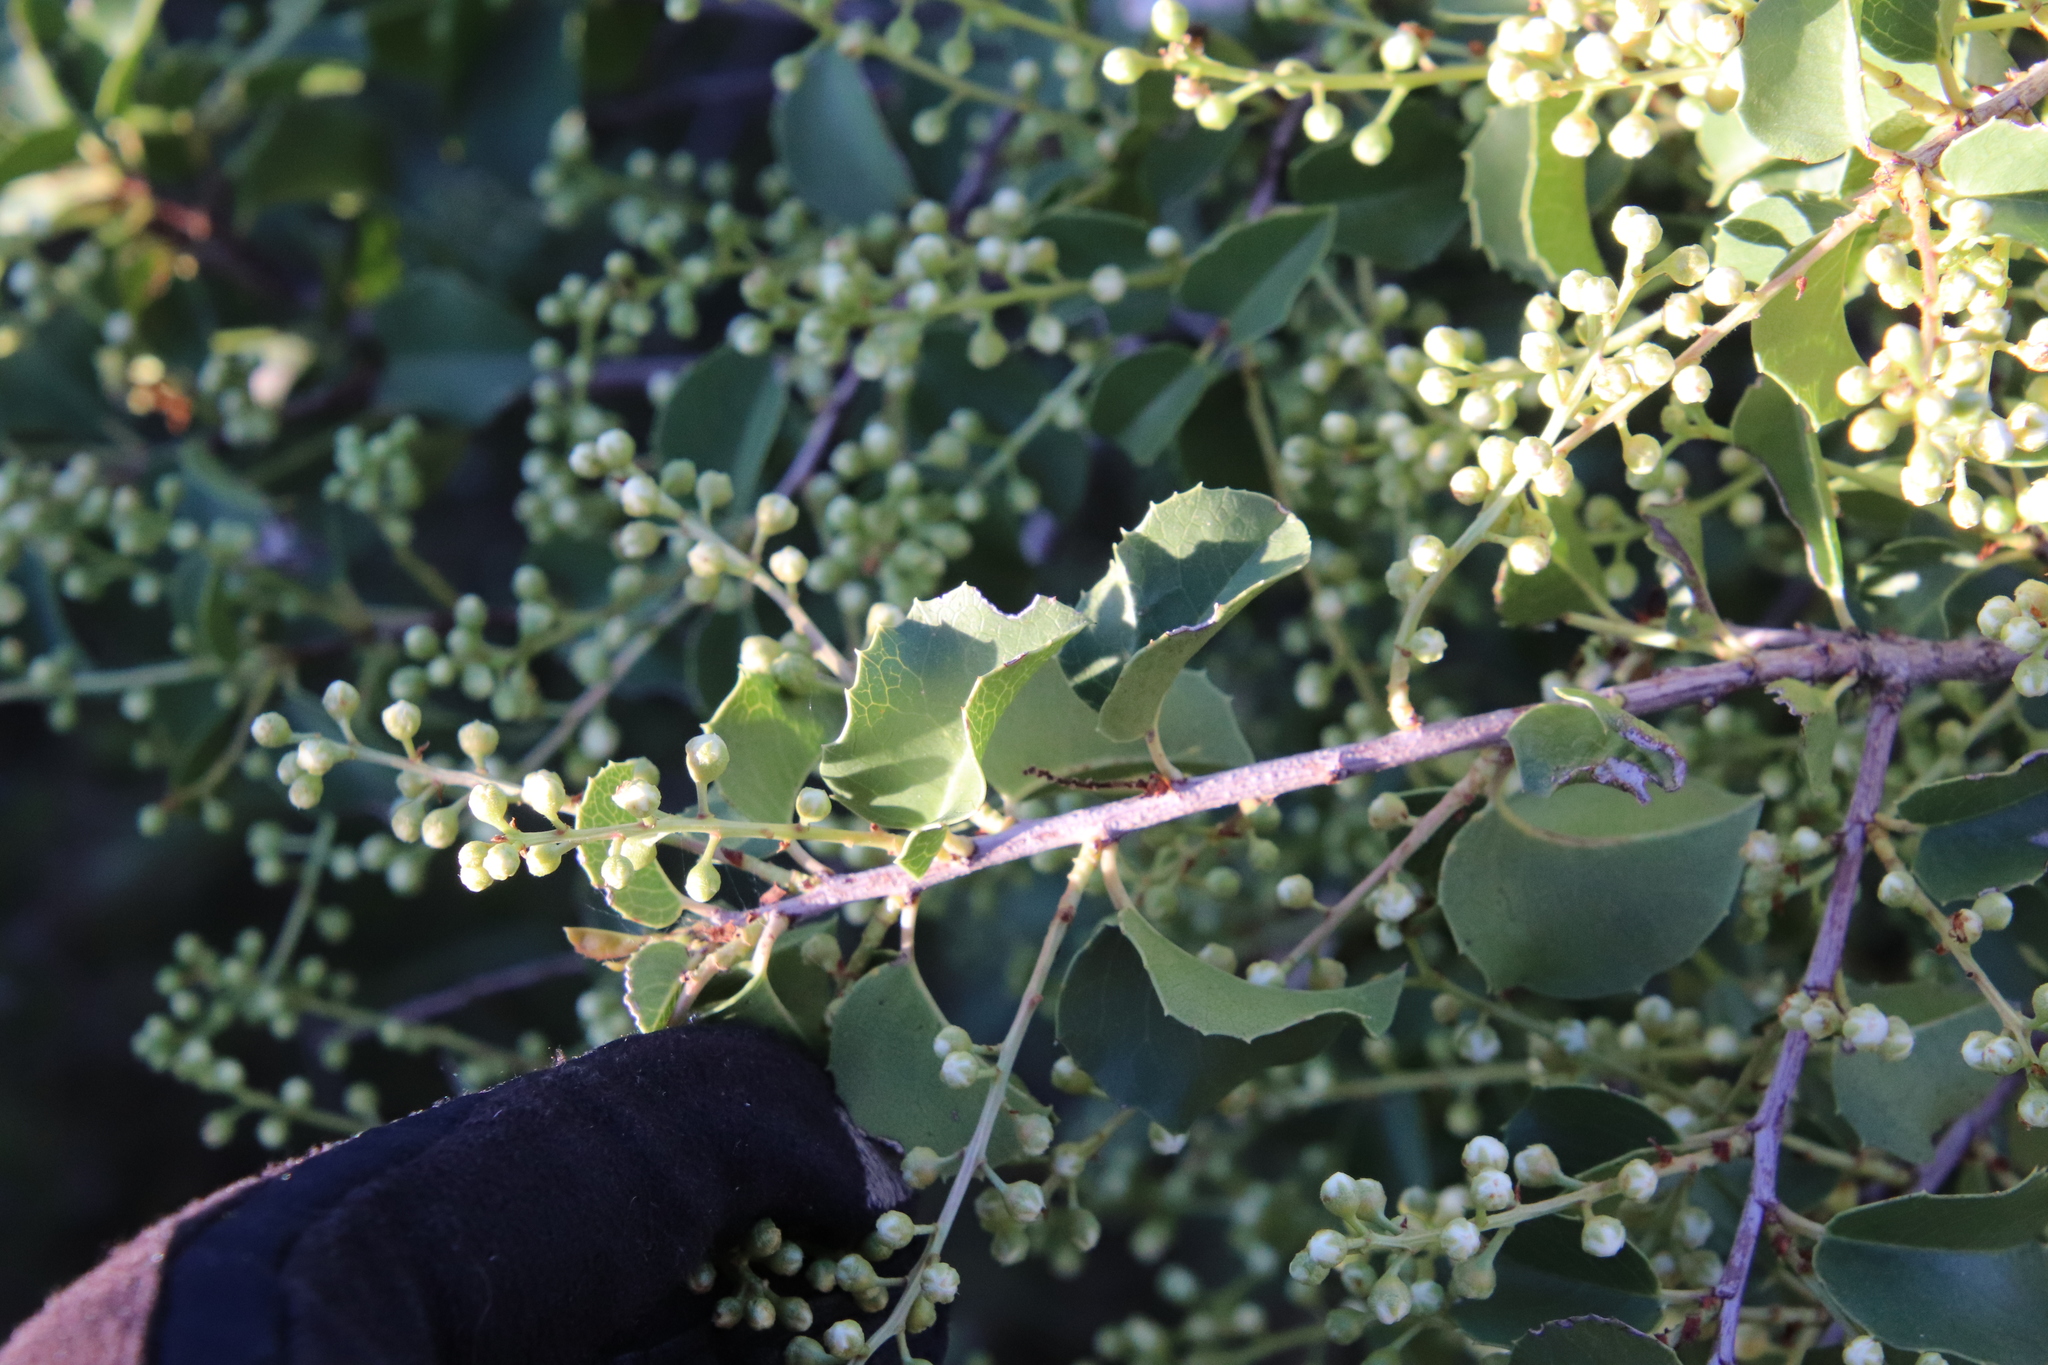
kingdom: Plantae
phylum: Tracheophyta
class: Magnoliopsida
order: Rosales
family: Rosaceae
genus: Prunus
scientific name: Prunus ilicifolia
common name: Hollyleaf cherry
